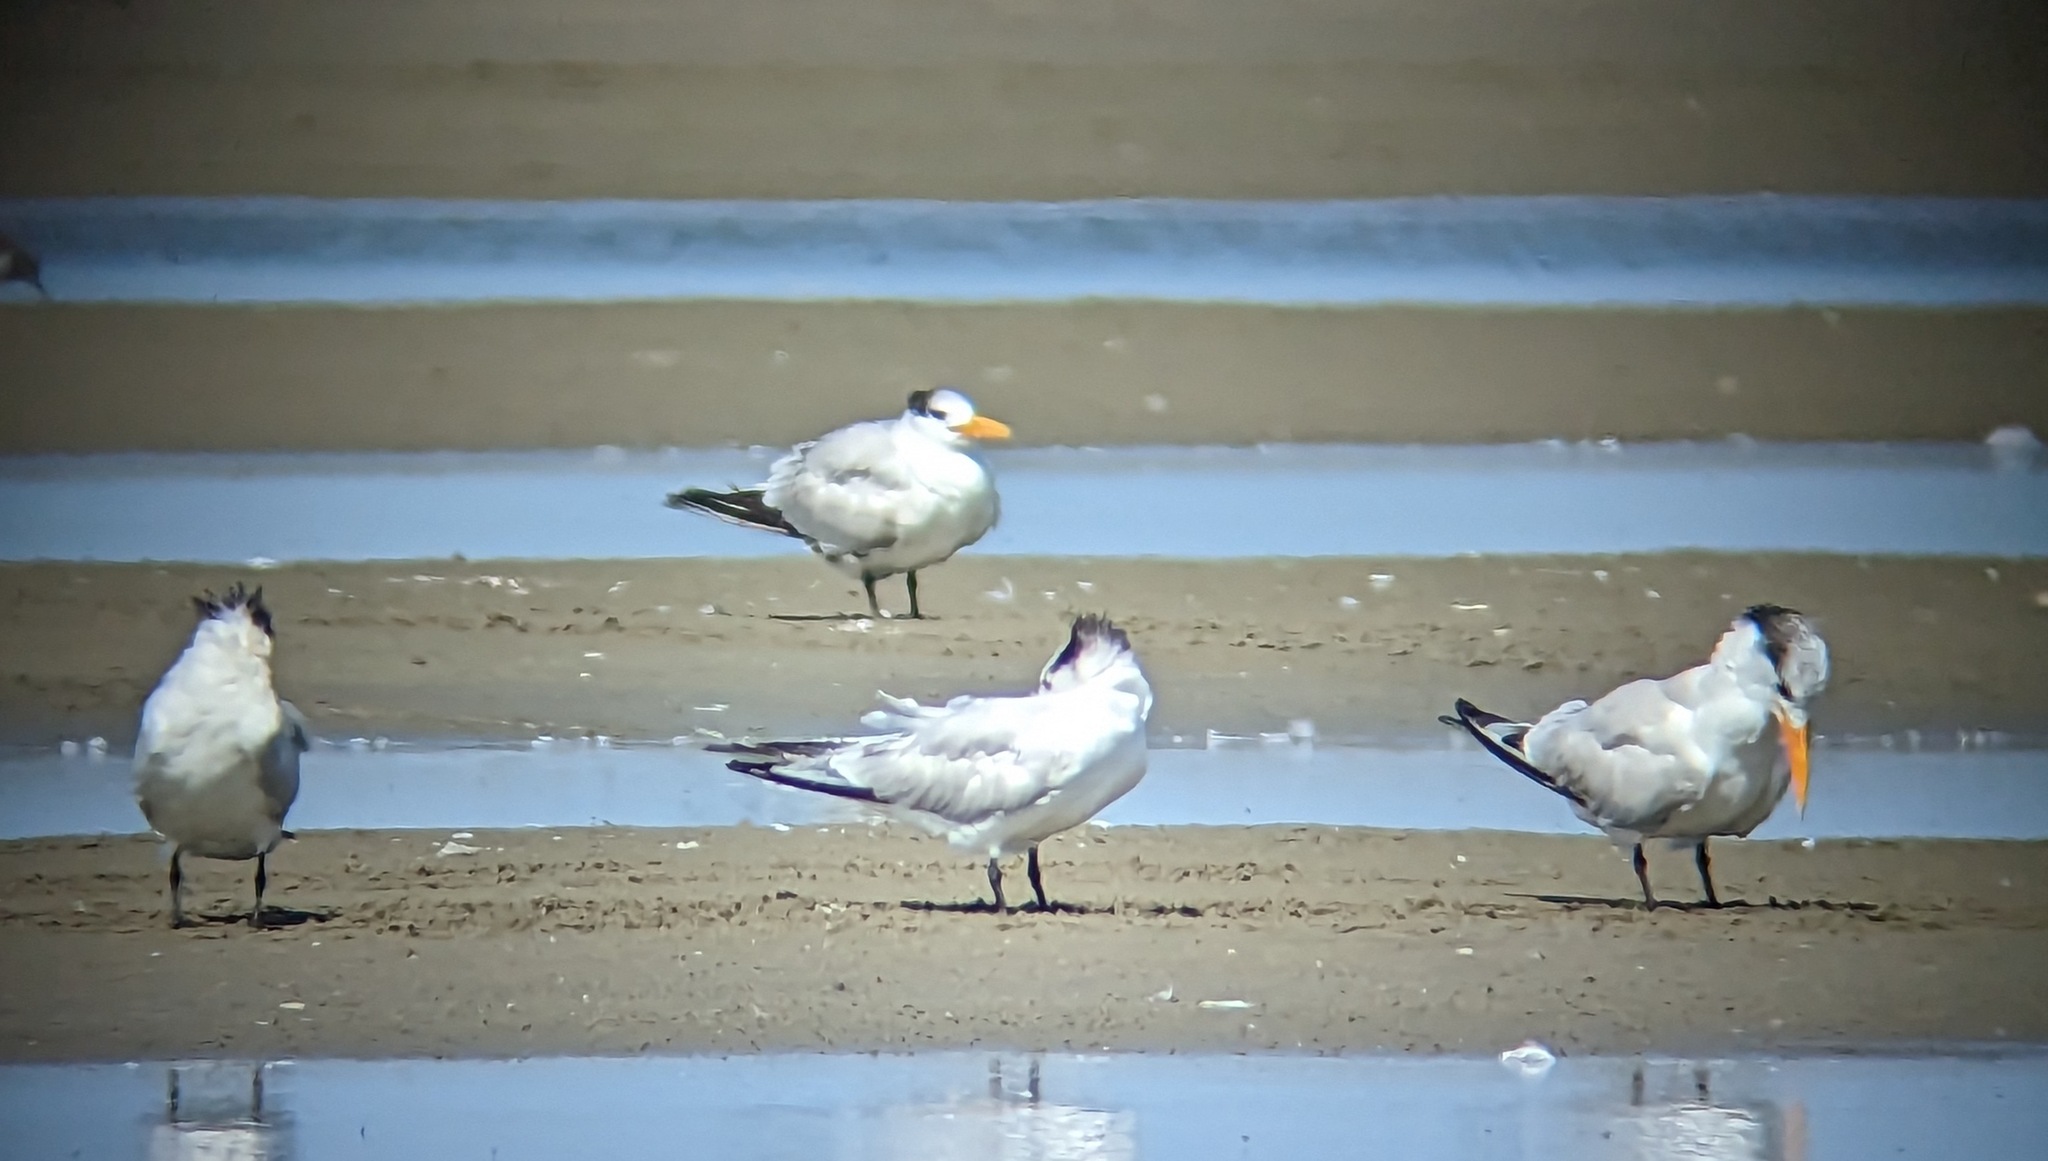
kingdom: Animalia
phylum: Chordata
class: Aves
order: Charadriiformes
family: Laridae
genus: Thalasseus
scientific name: Thalasseus maximus
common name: Royal tern
